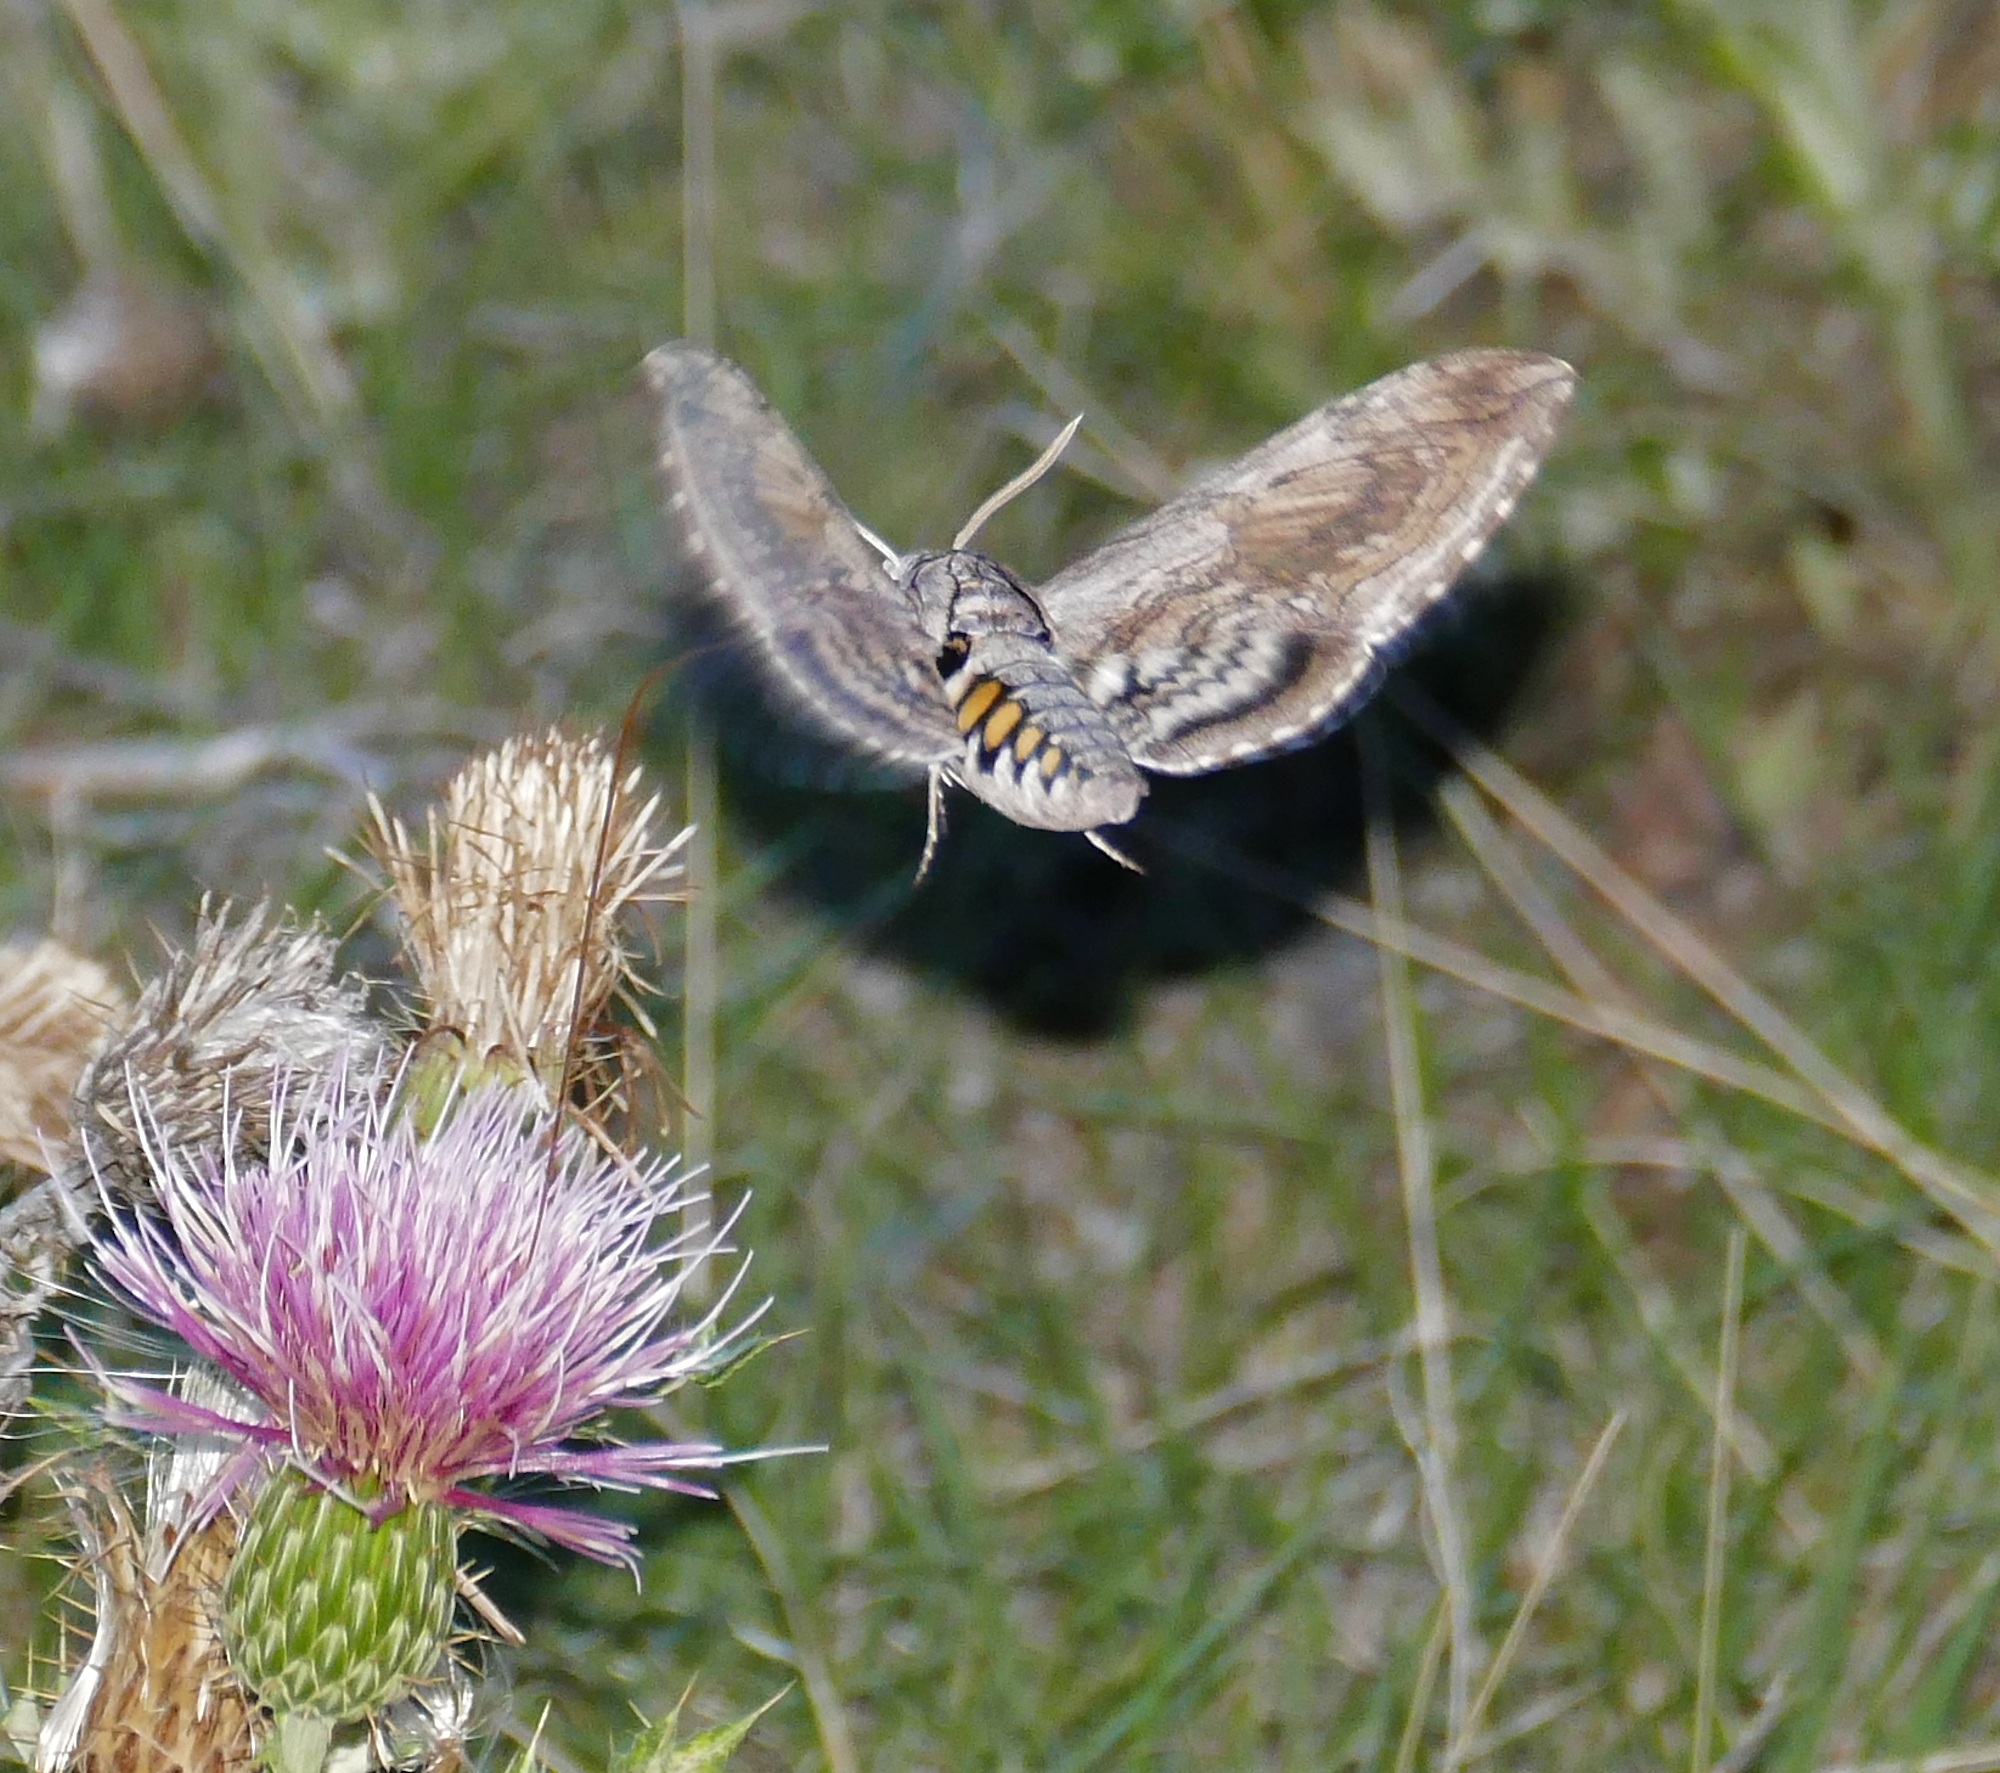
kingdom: Animalia
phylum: Arthropoda
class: Insecta
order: Lepidoptera
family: Sphingidae
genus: Manduca
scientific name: Manduca quinquemaculatus
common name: Five-spotted hawk-moth
